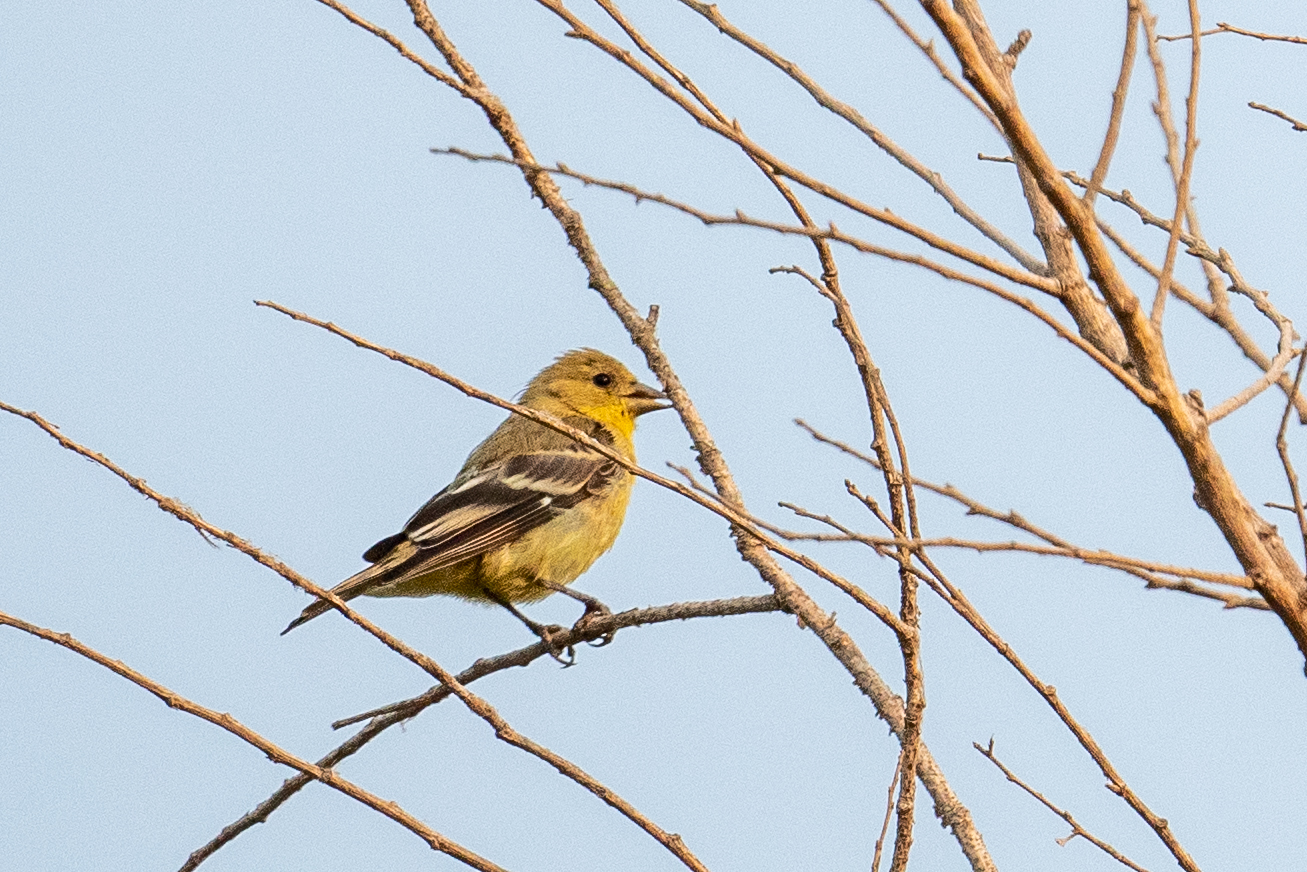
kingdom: Animalia
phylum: Chordata
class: Aves
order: Passeriformes
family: Fringillidae
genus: Spinus
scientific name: Spinus psaltria
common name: Lesser goldfinch
